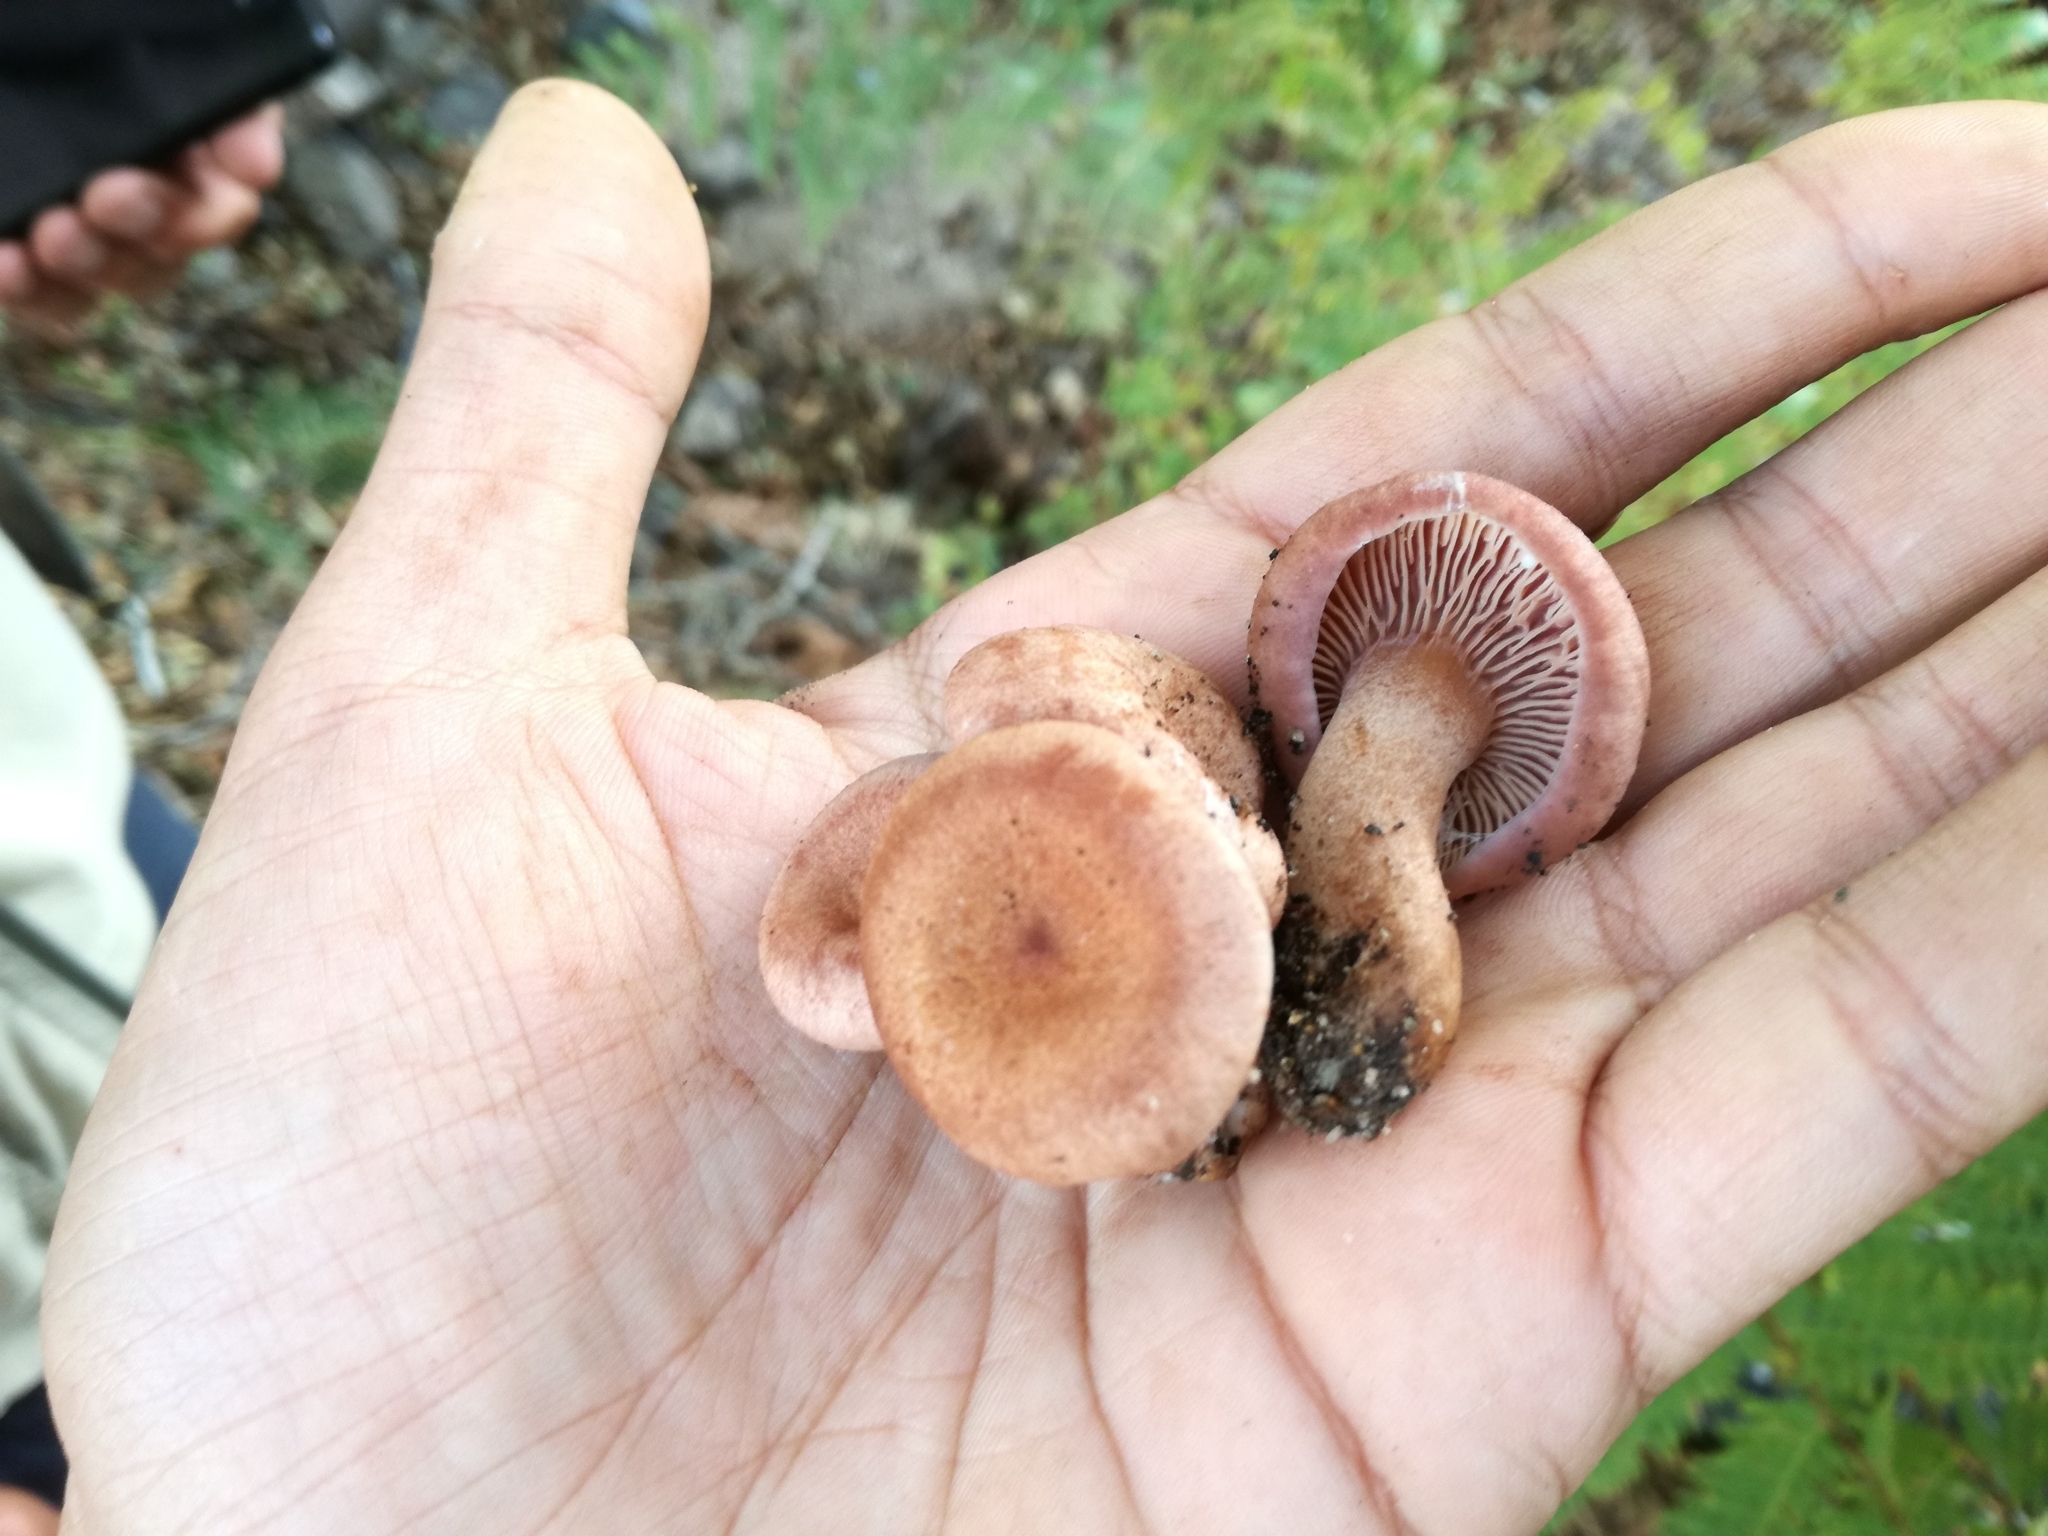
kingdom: Fungi
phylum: Basidiomycota
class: Agaricomycetes
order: Russulales
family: Russulaceae
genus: Lactarius
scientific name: Lactarius lilacinus
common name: Lilac milkcap
